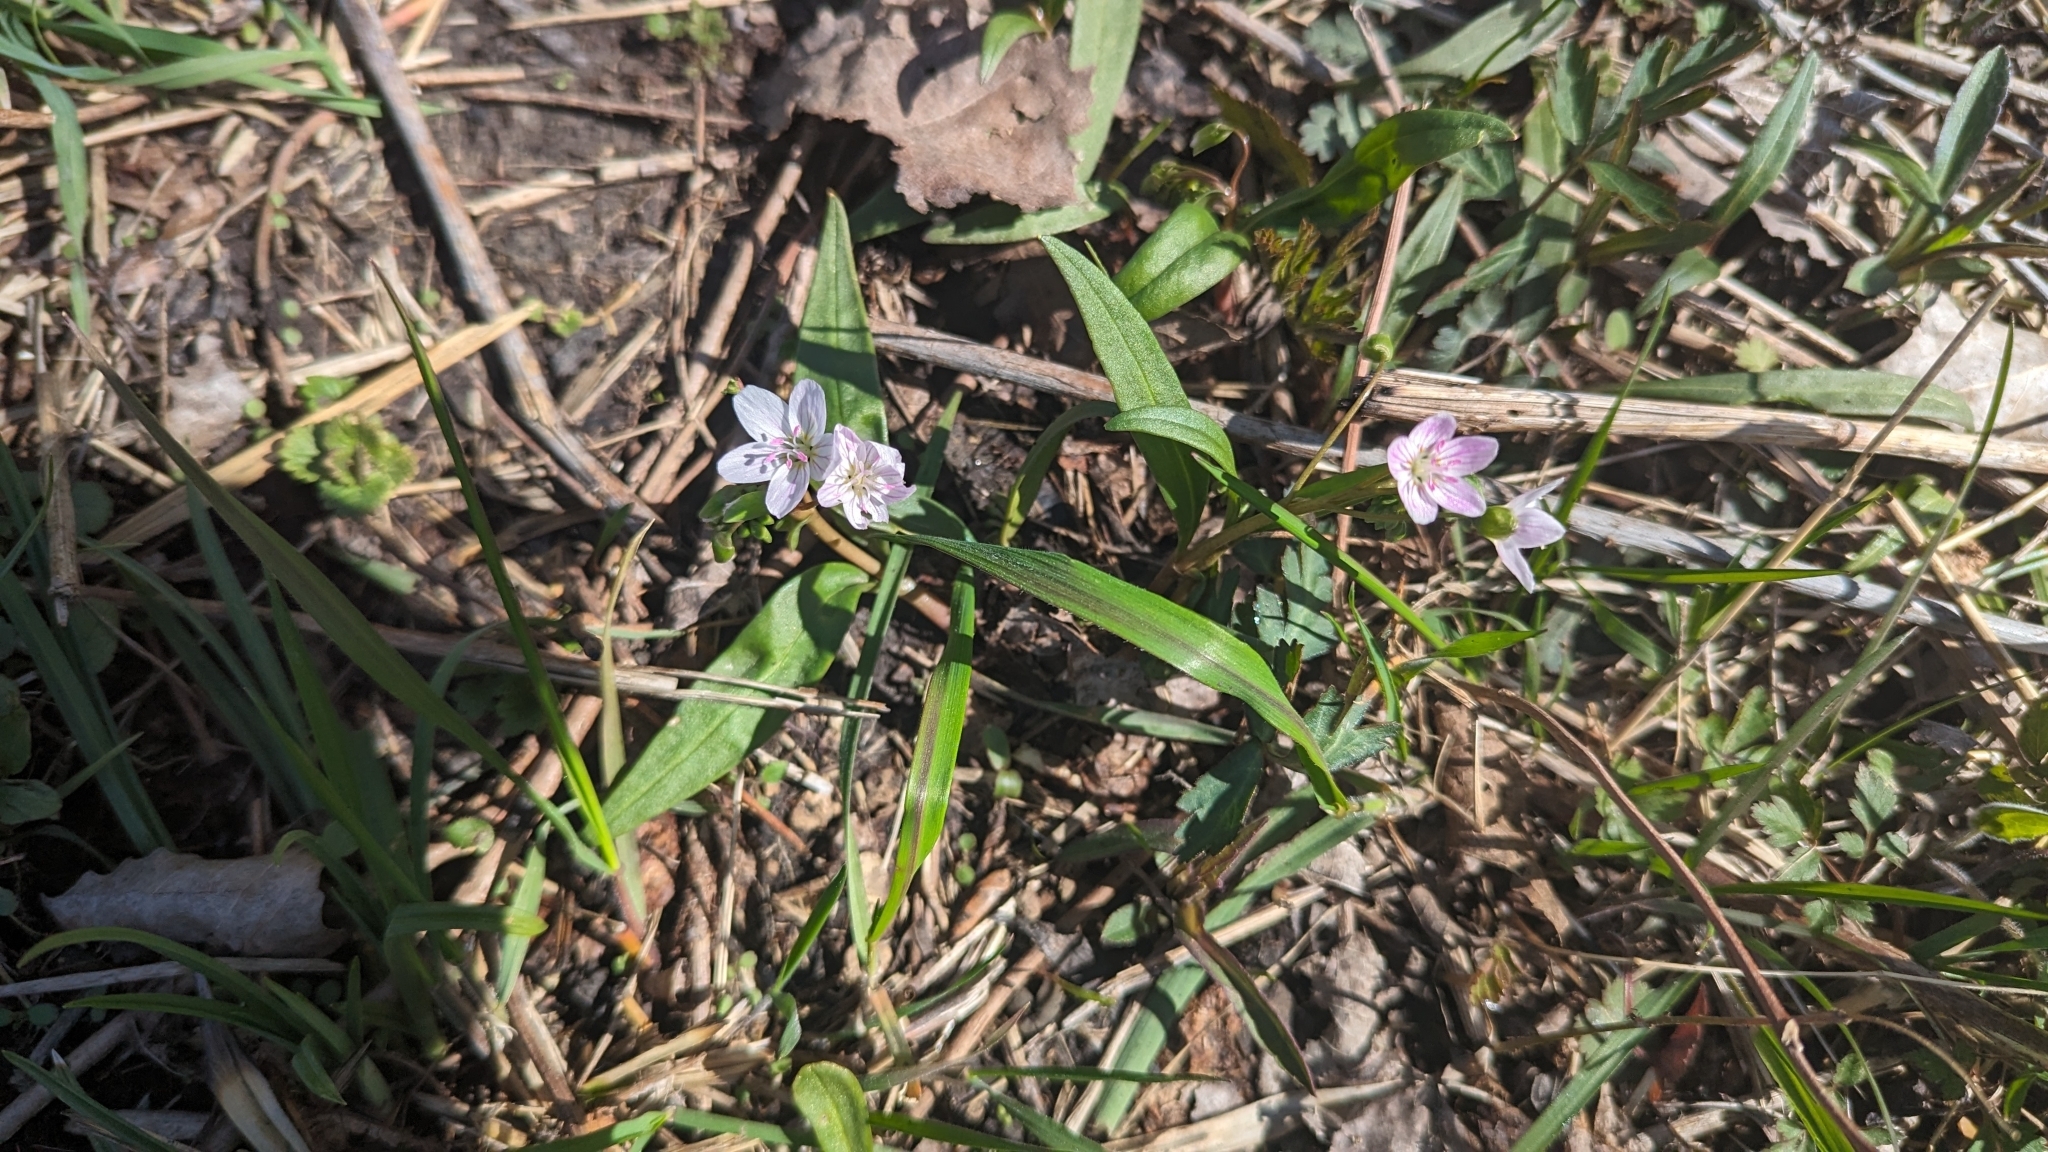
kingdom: Plantae
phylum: Tracheophyta
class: Magnoliopsida
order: Caryophyllales
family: Montiaceae
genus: Claytonia
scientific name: Claytonia virginica
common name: Virginia springbeauty
